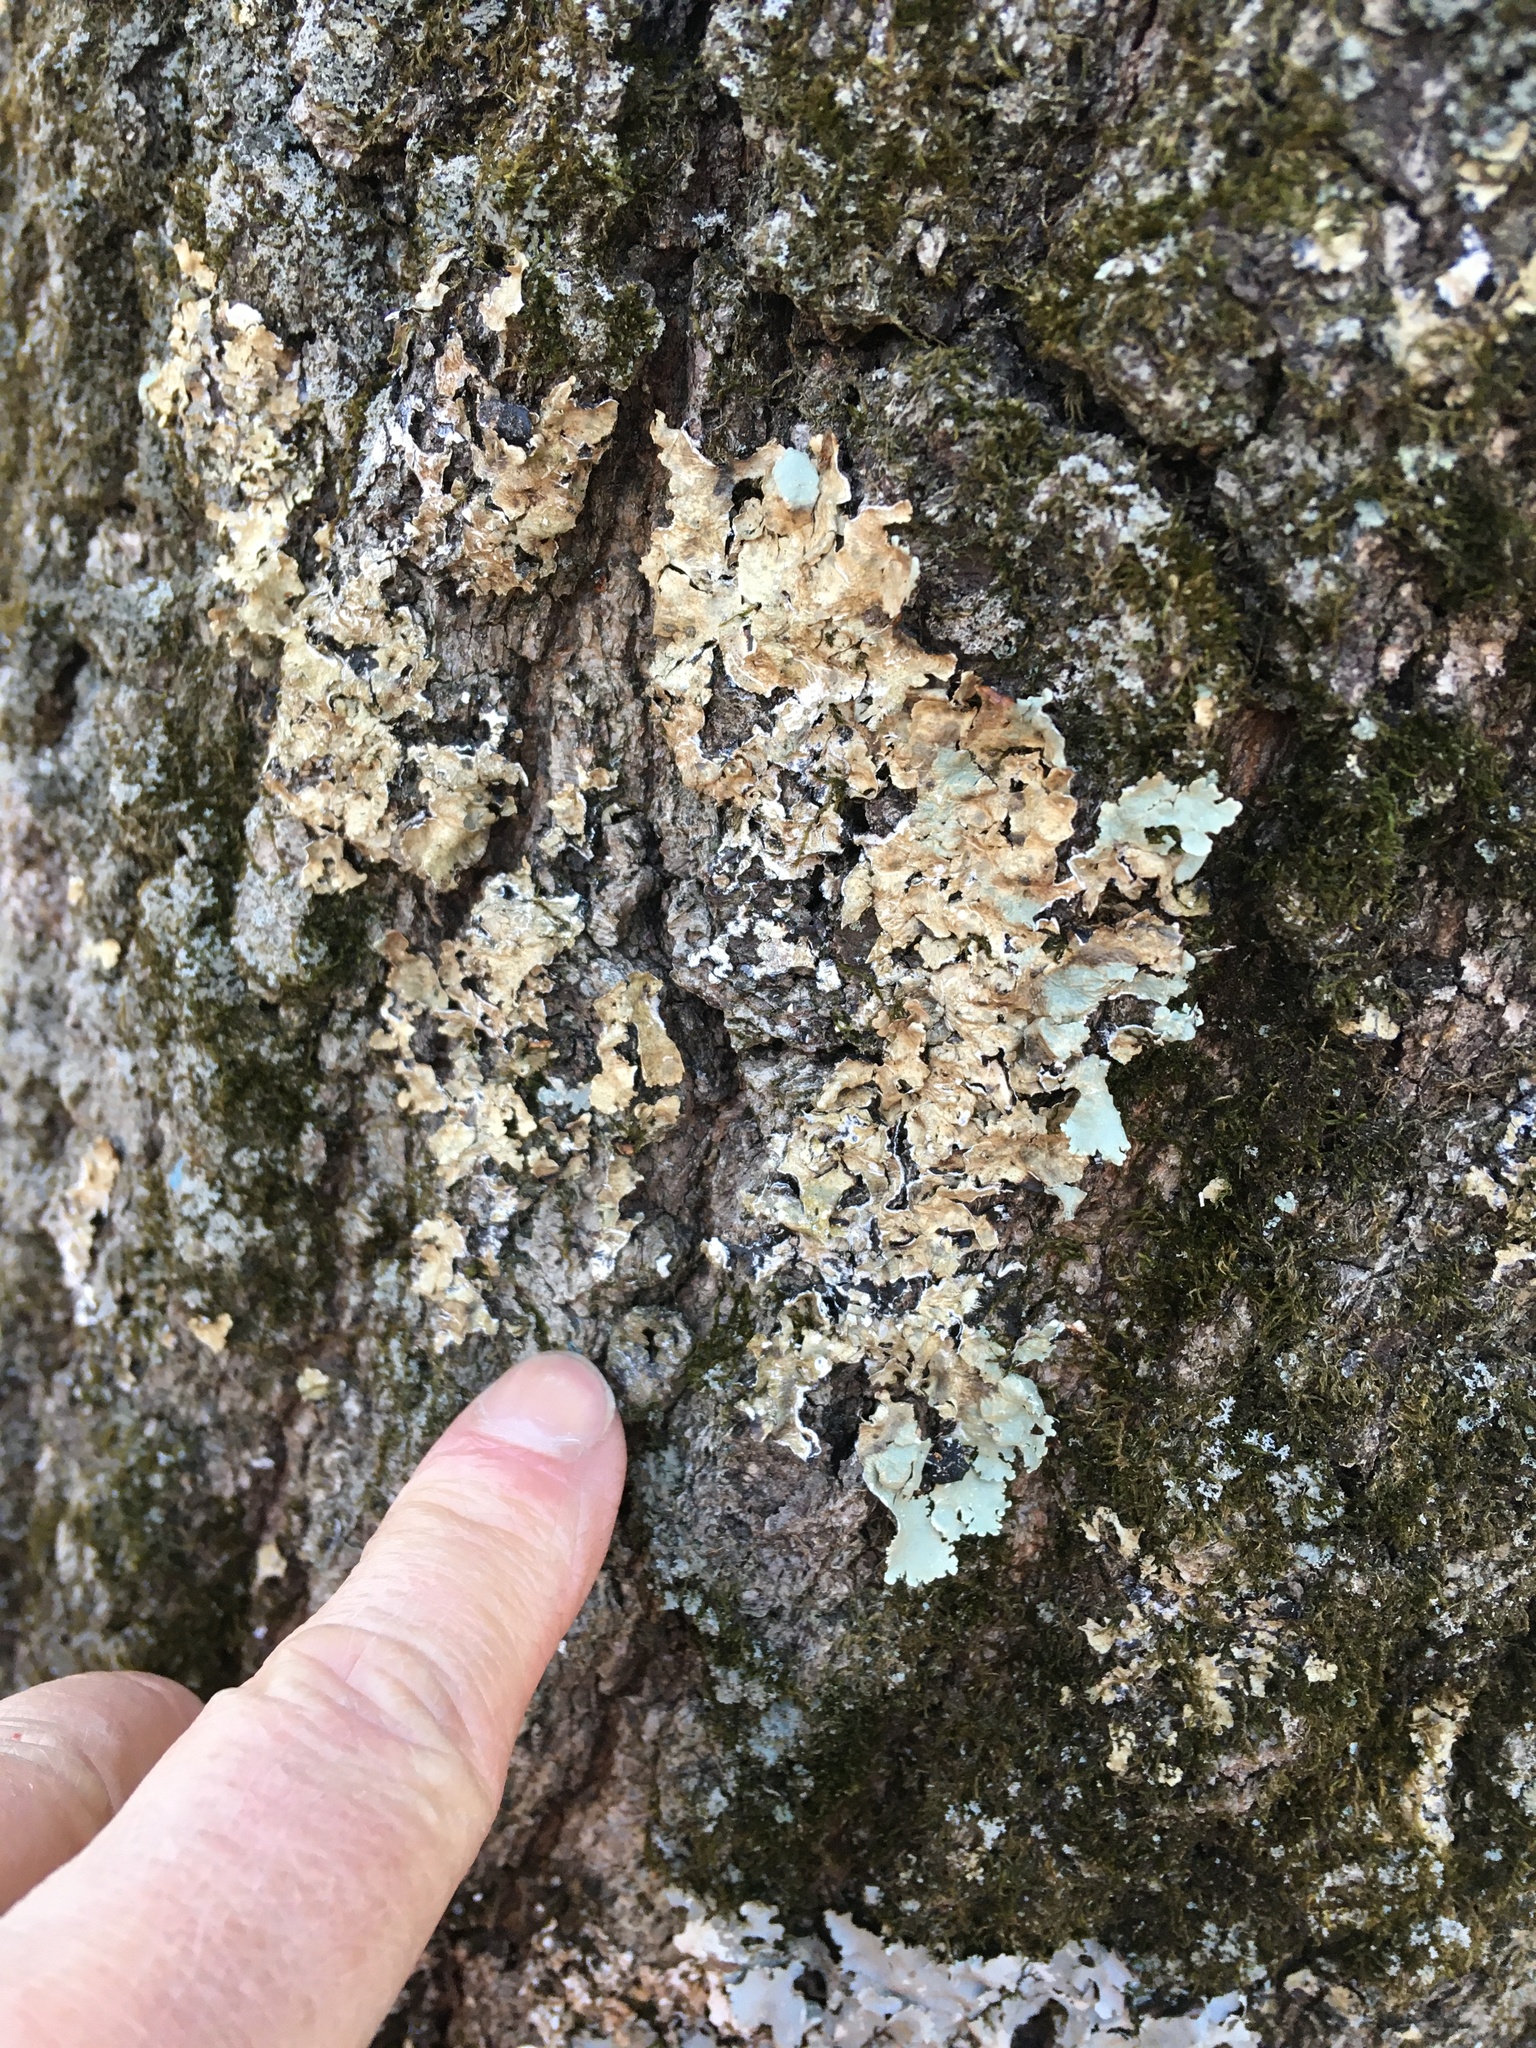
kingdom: Fungi
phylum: Ascomycota
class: Lecanoromycetes
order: Lecanorales
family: Parmeliaceae
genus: Flavoparmelia
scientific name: Flavoparmelia caperata
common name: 40-mile per hour lichen
